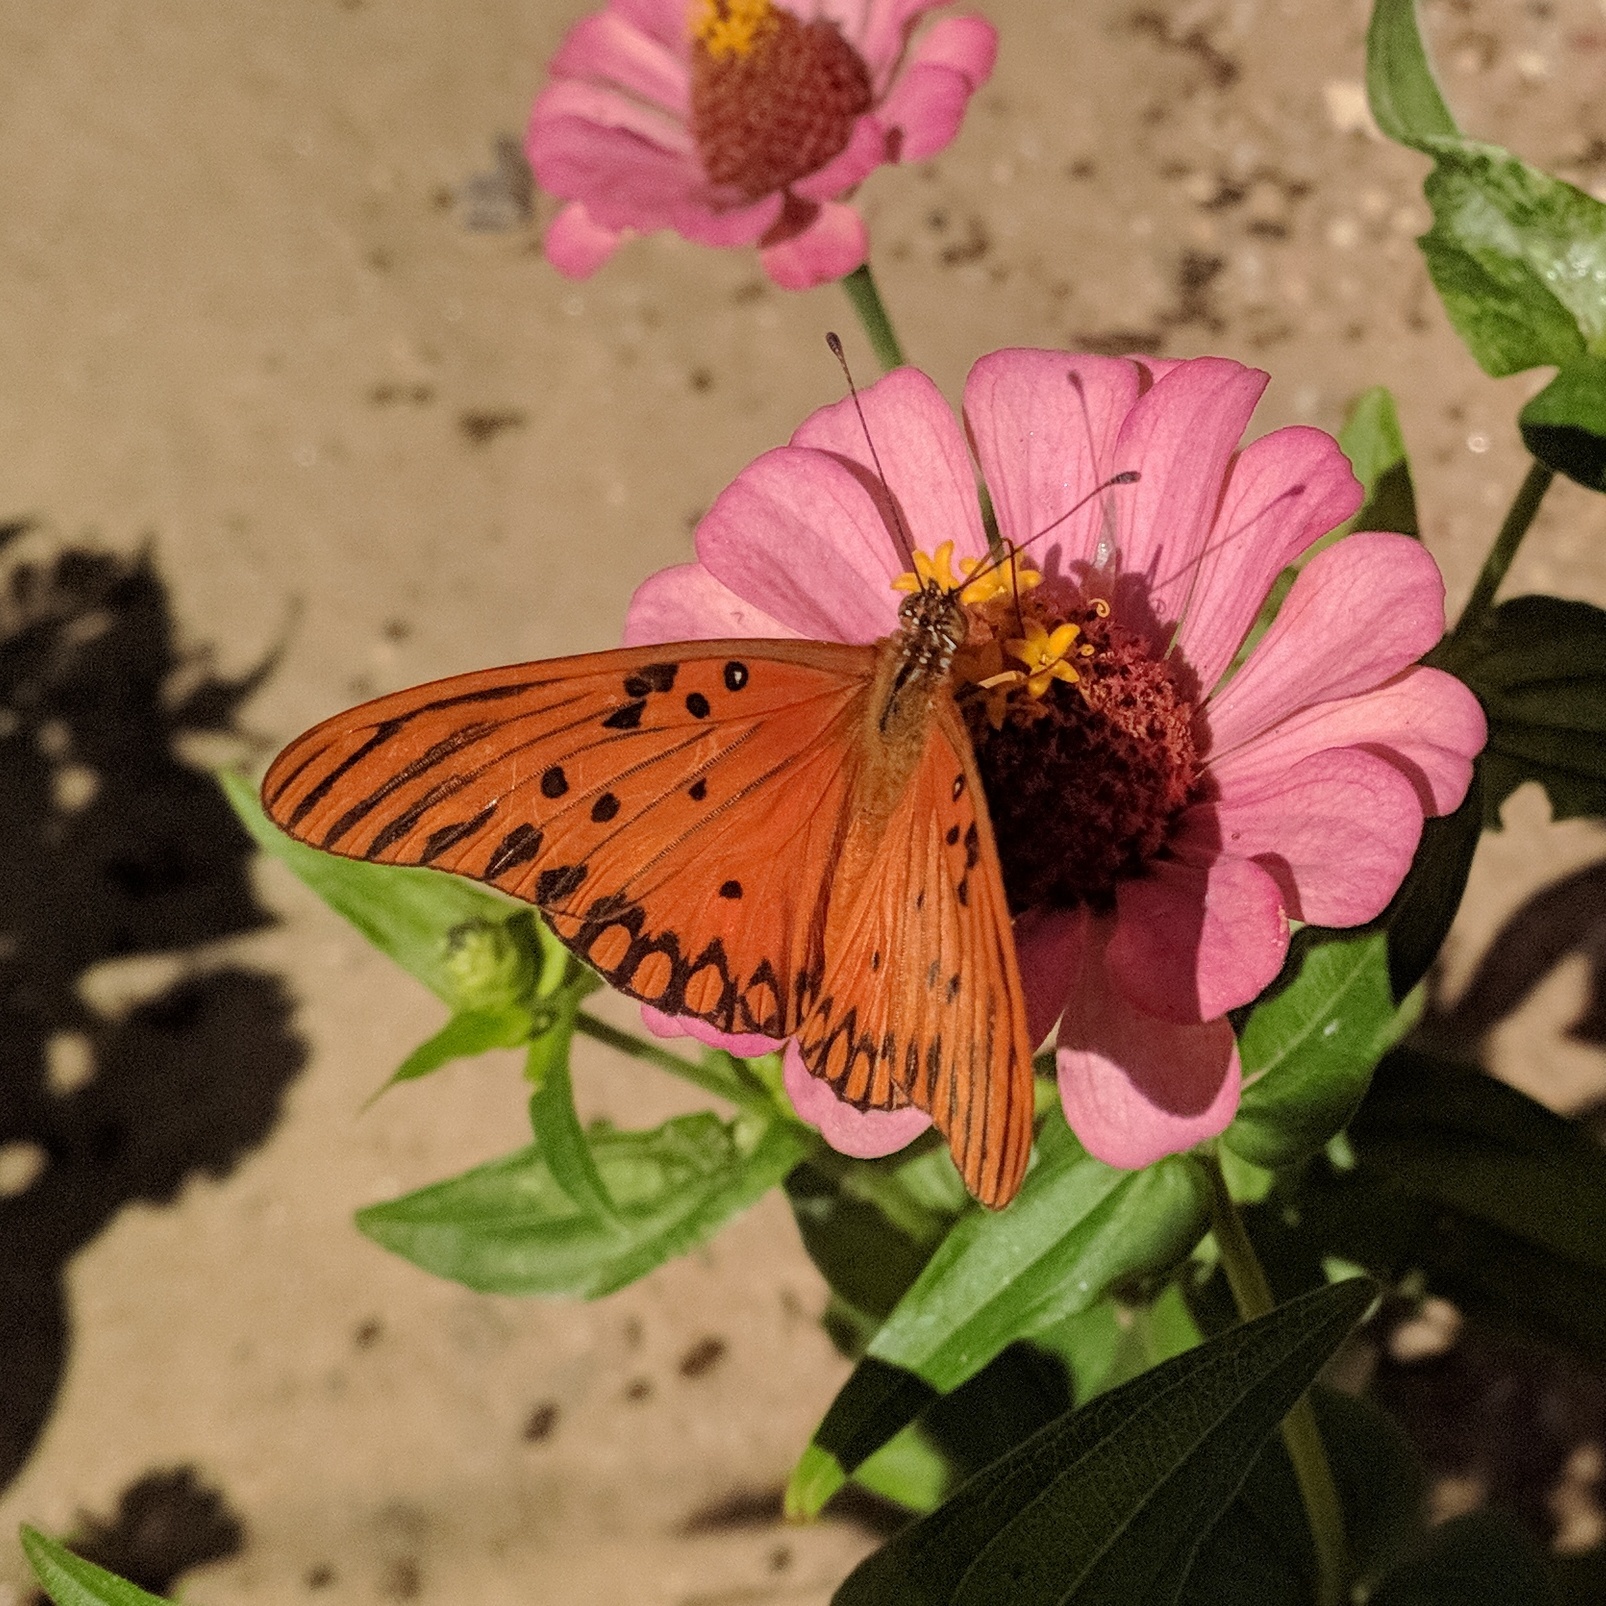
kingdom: Animalia
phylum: Arthropoda
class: Insecta
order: Lepidoptera
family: Nymphalidae
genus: Dione
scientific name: Dione vanillae
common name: Gulf fritillary
